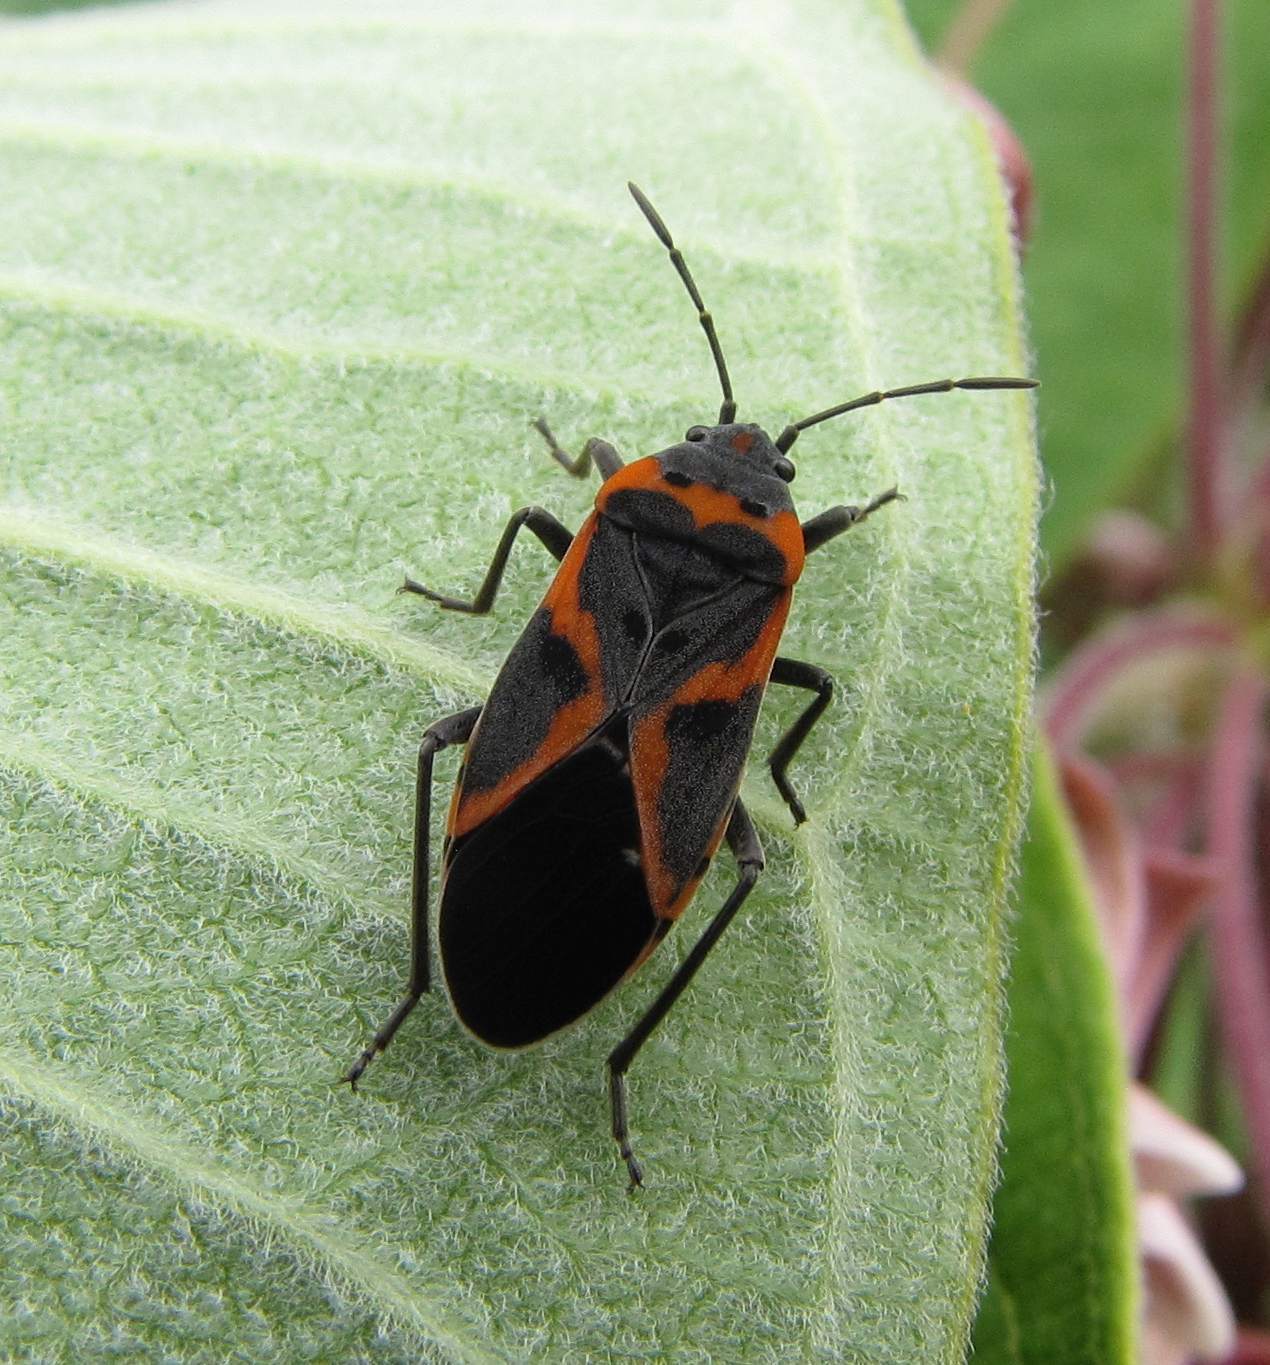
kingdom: Animalia
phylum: Arthropoda
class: Insecta
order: Hemiptera
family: Lygaeidae
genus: Lygaeus
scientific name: Lygaeus kalmii
